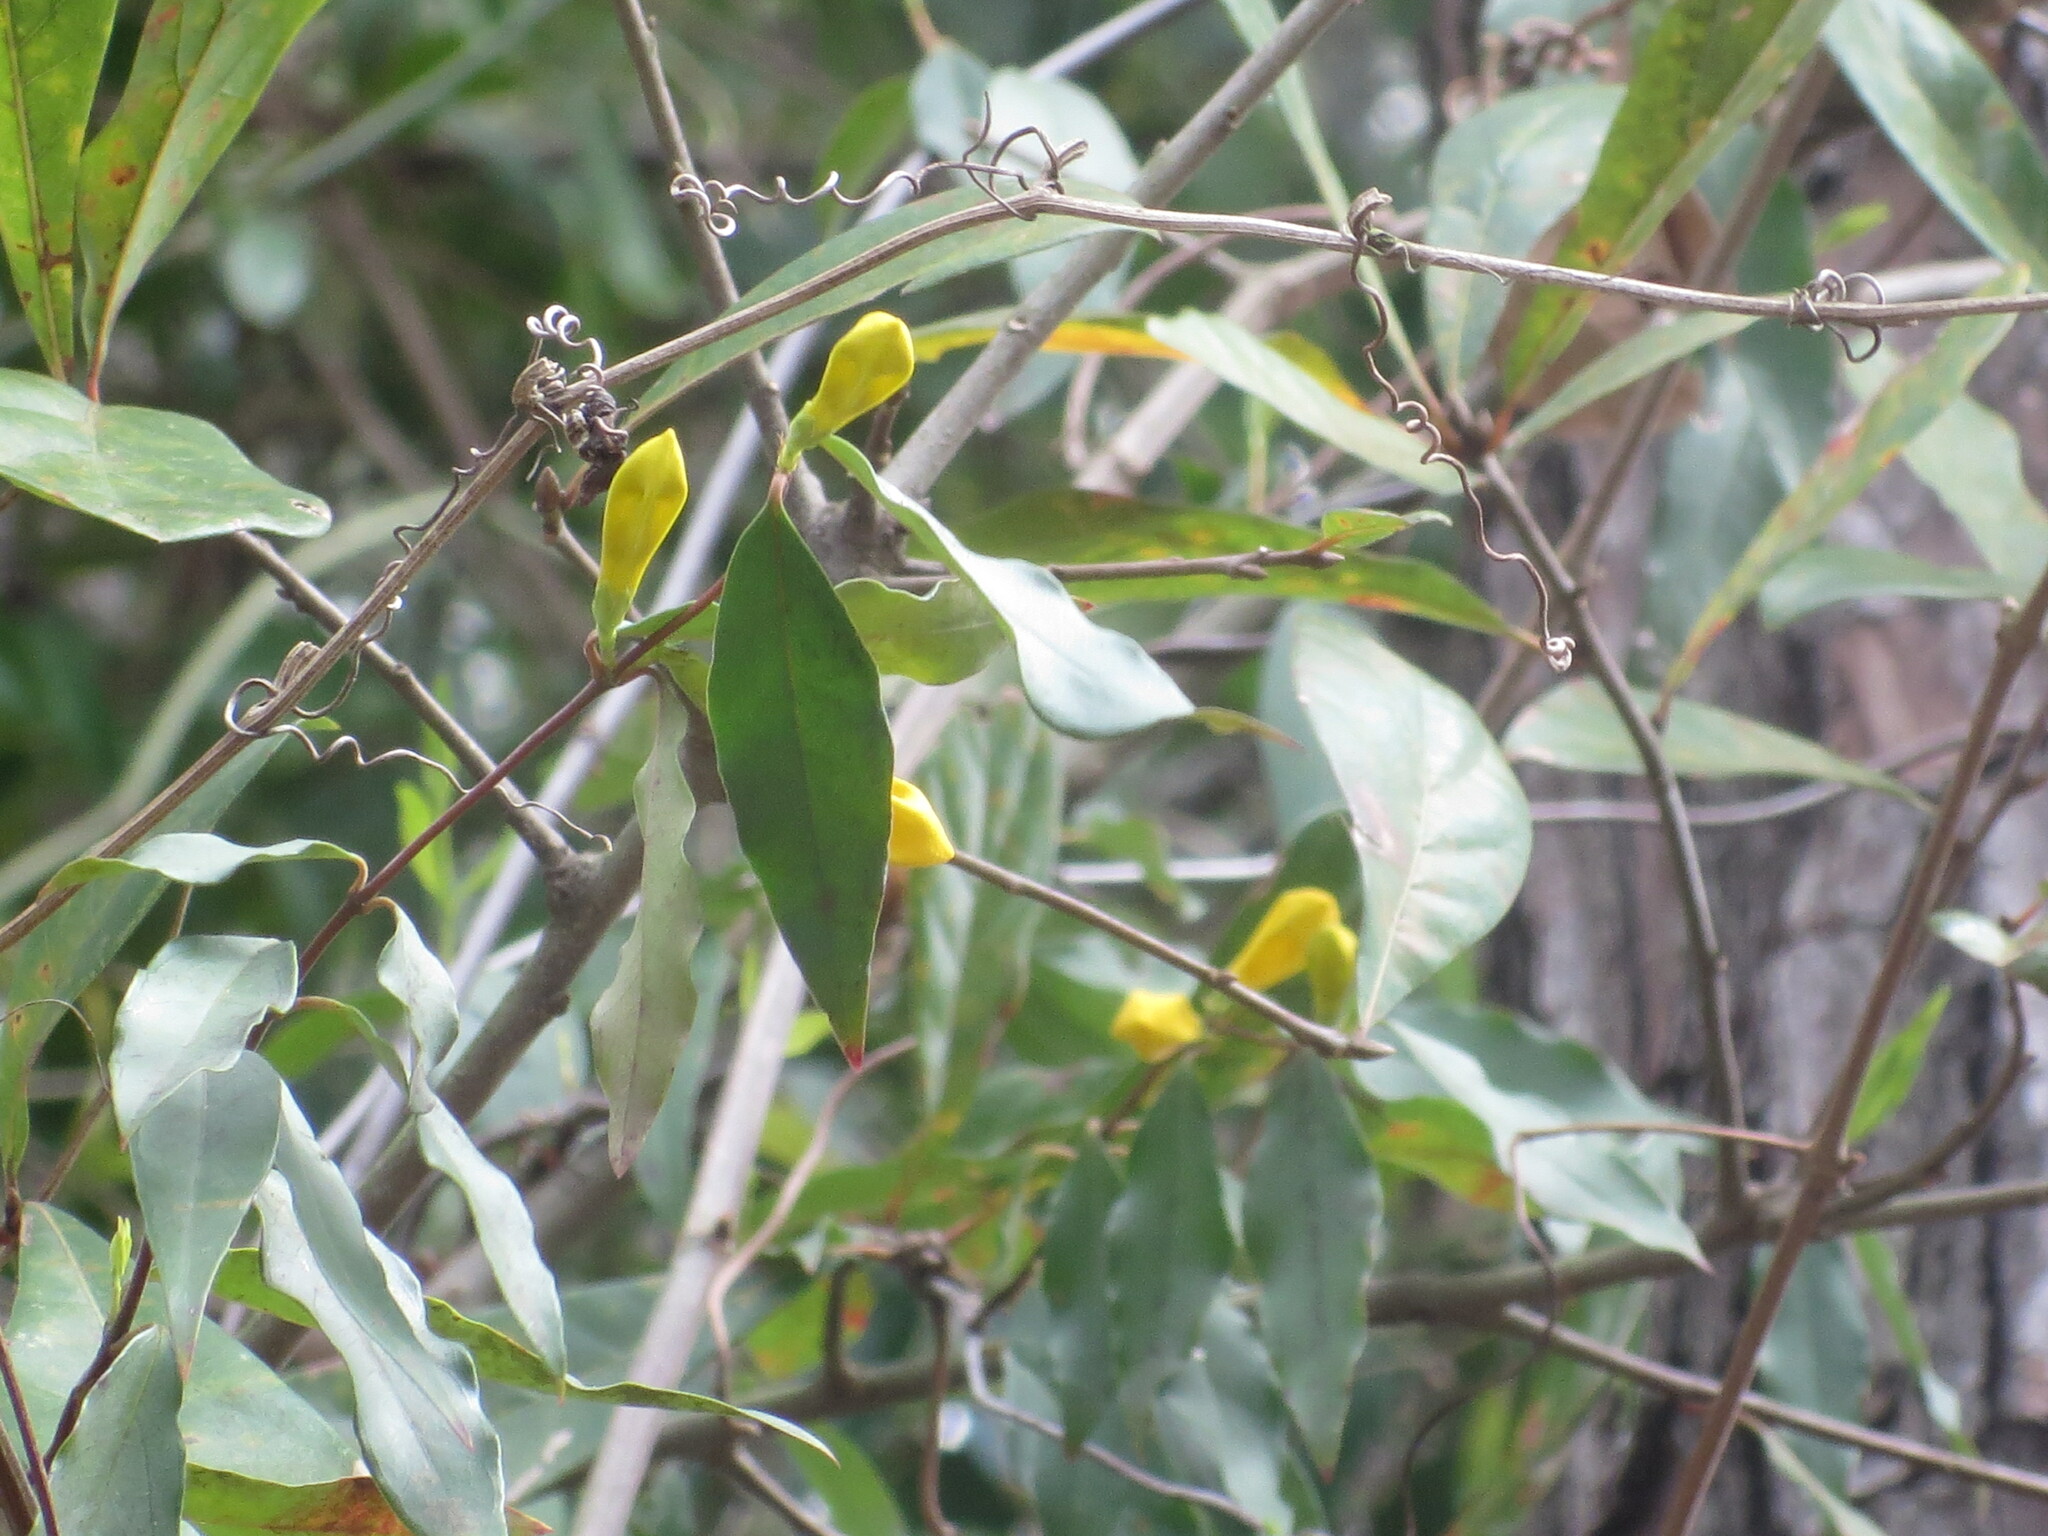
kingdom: Plantae
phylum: Tracheophyta
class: Magnoliopsida
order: Gentianales
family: Gelsemiaceae
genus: Gelsemium
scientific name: Gelsemium sempervirens
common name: Carolina-jasmine
